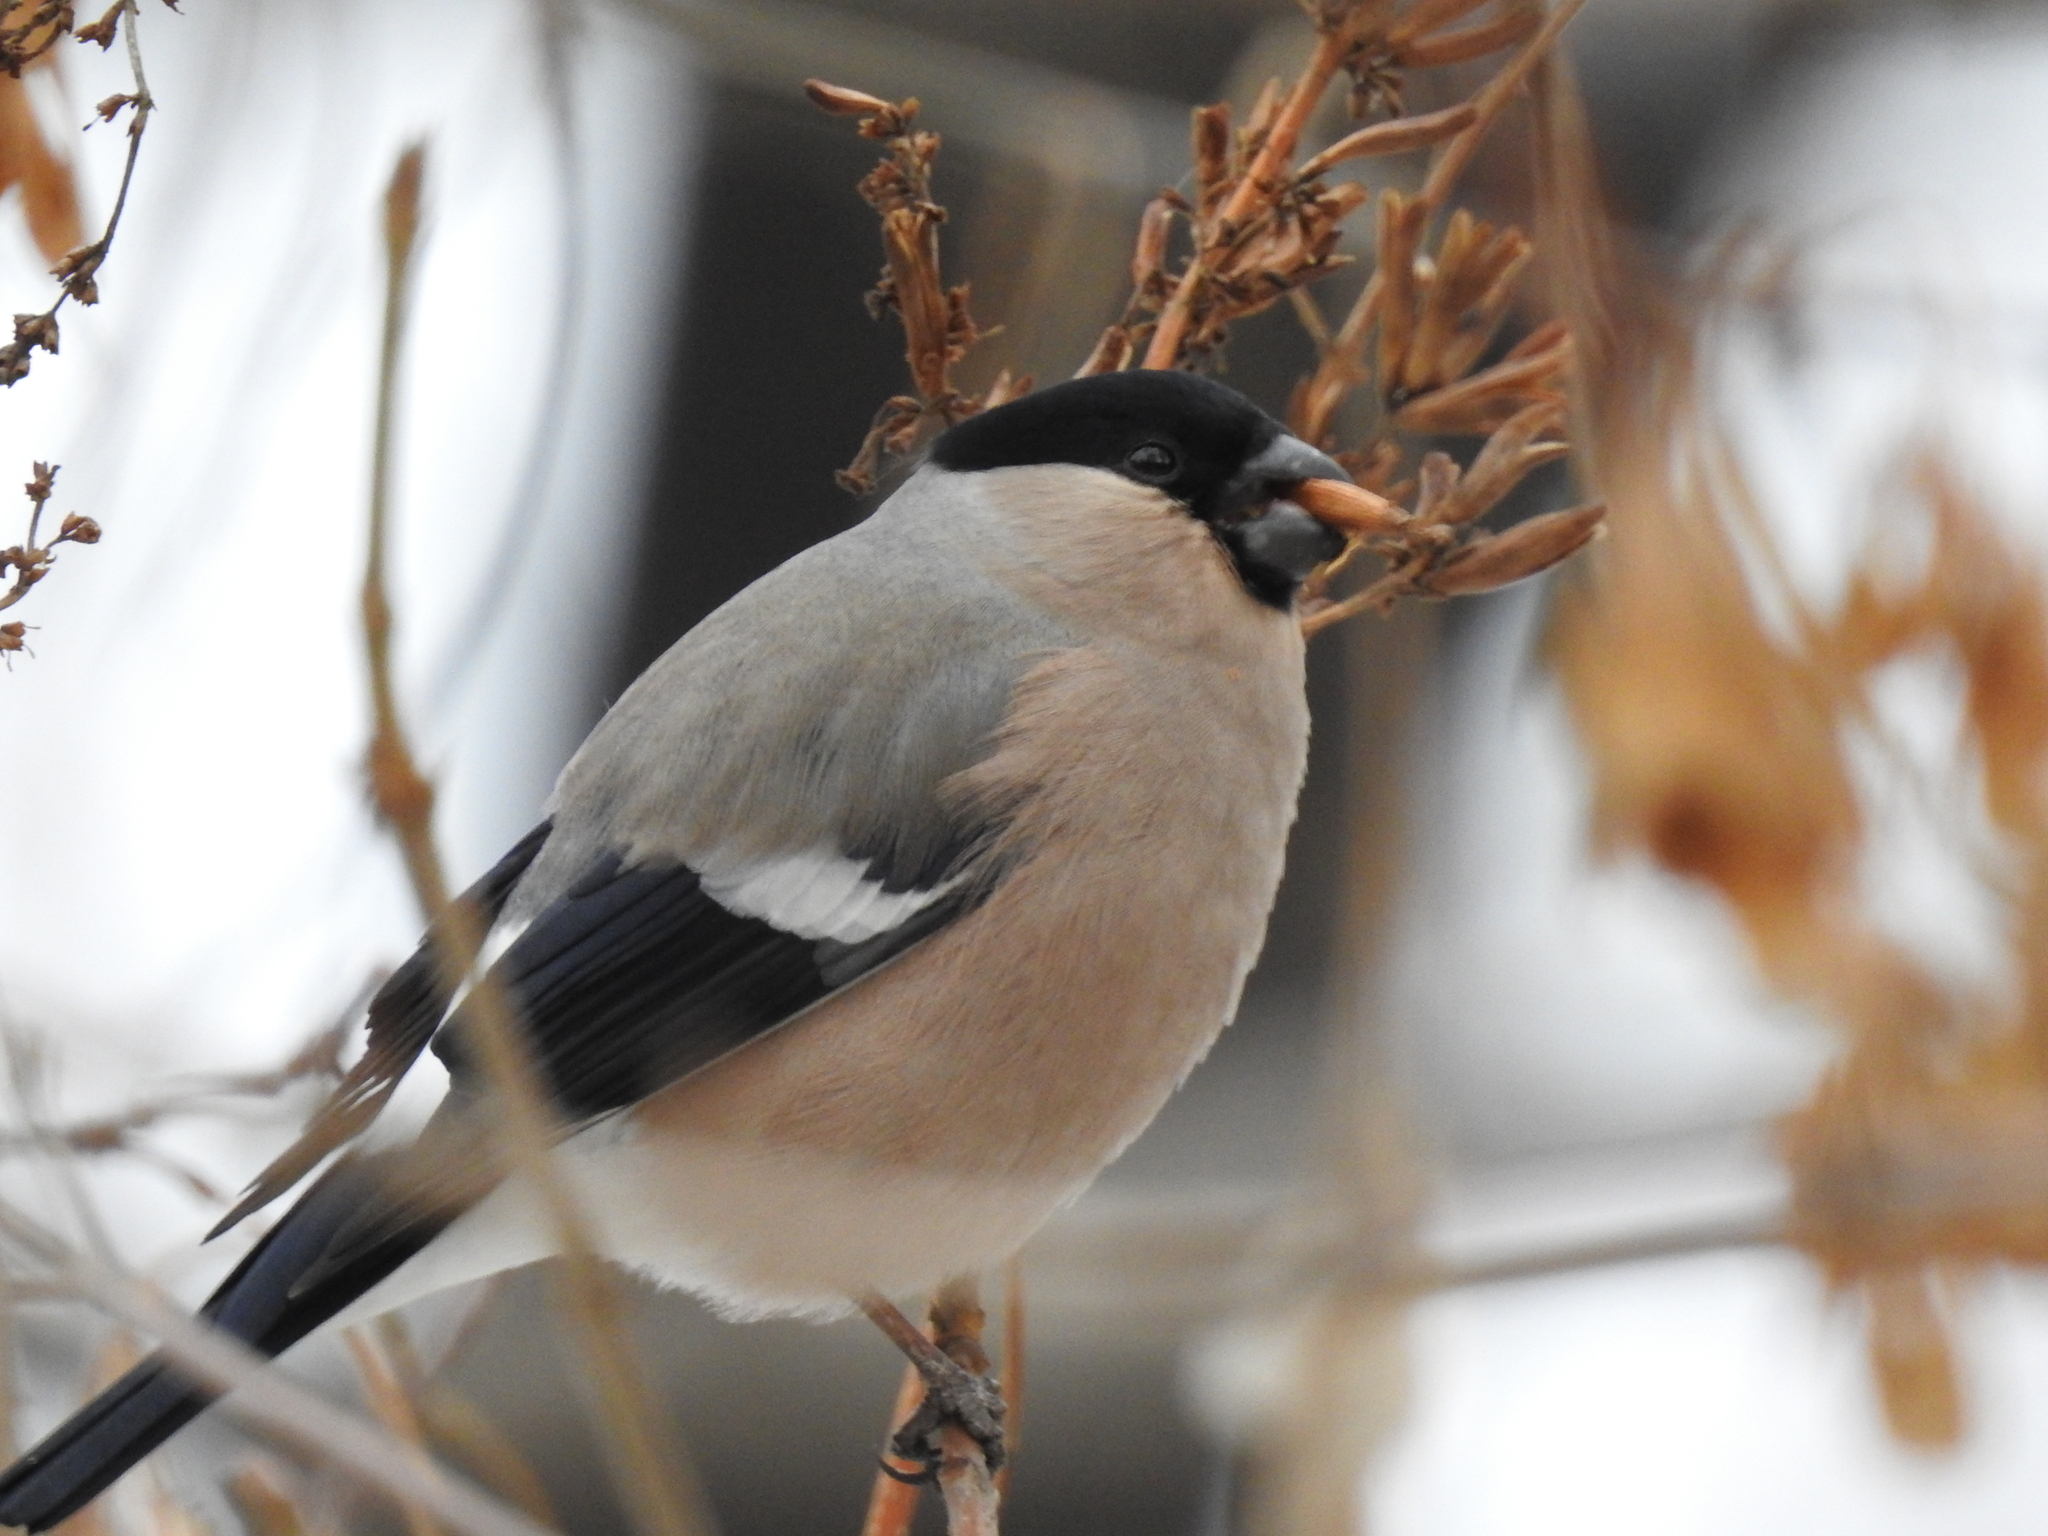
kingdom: Animalia
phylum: Chordata
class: Aves
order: Passeriformes
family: Fringillidae
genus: Pyrrhula
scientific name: Pyrrhula pyrrhula
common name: Eurasian bullfinch
